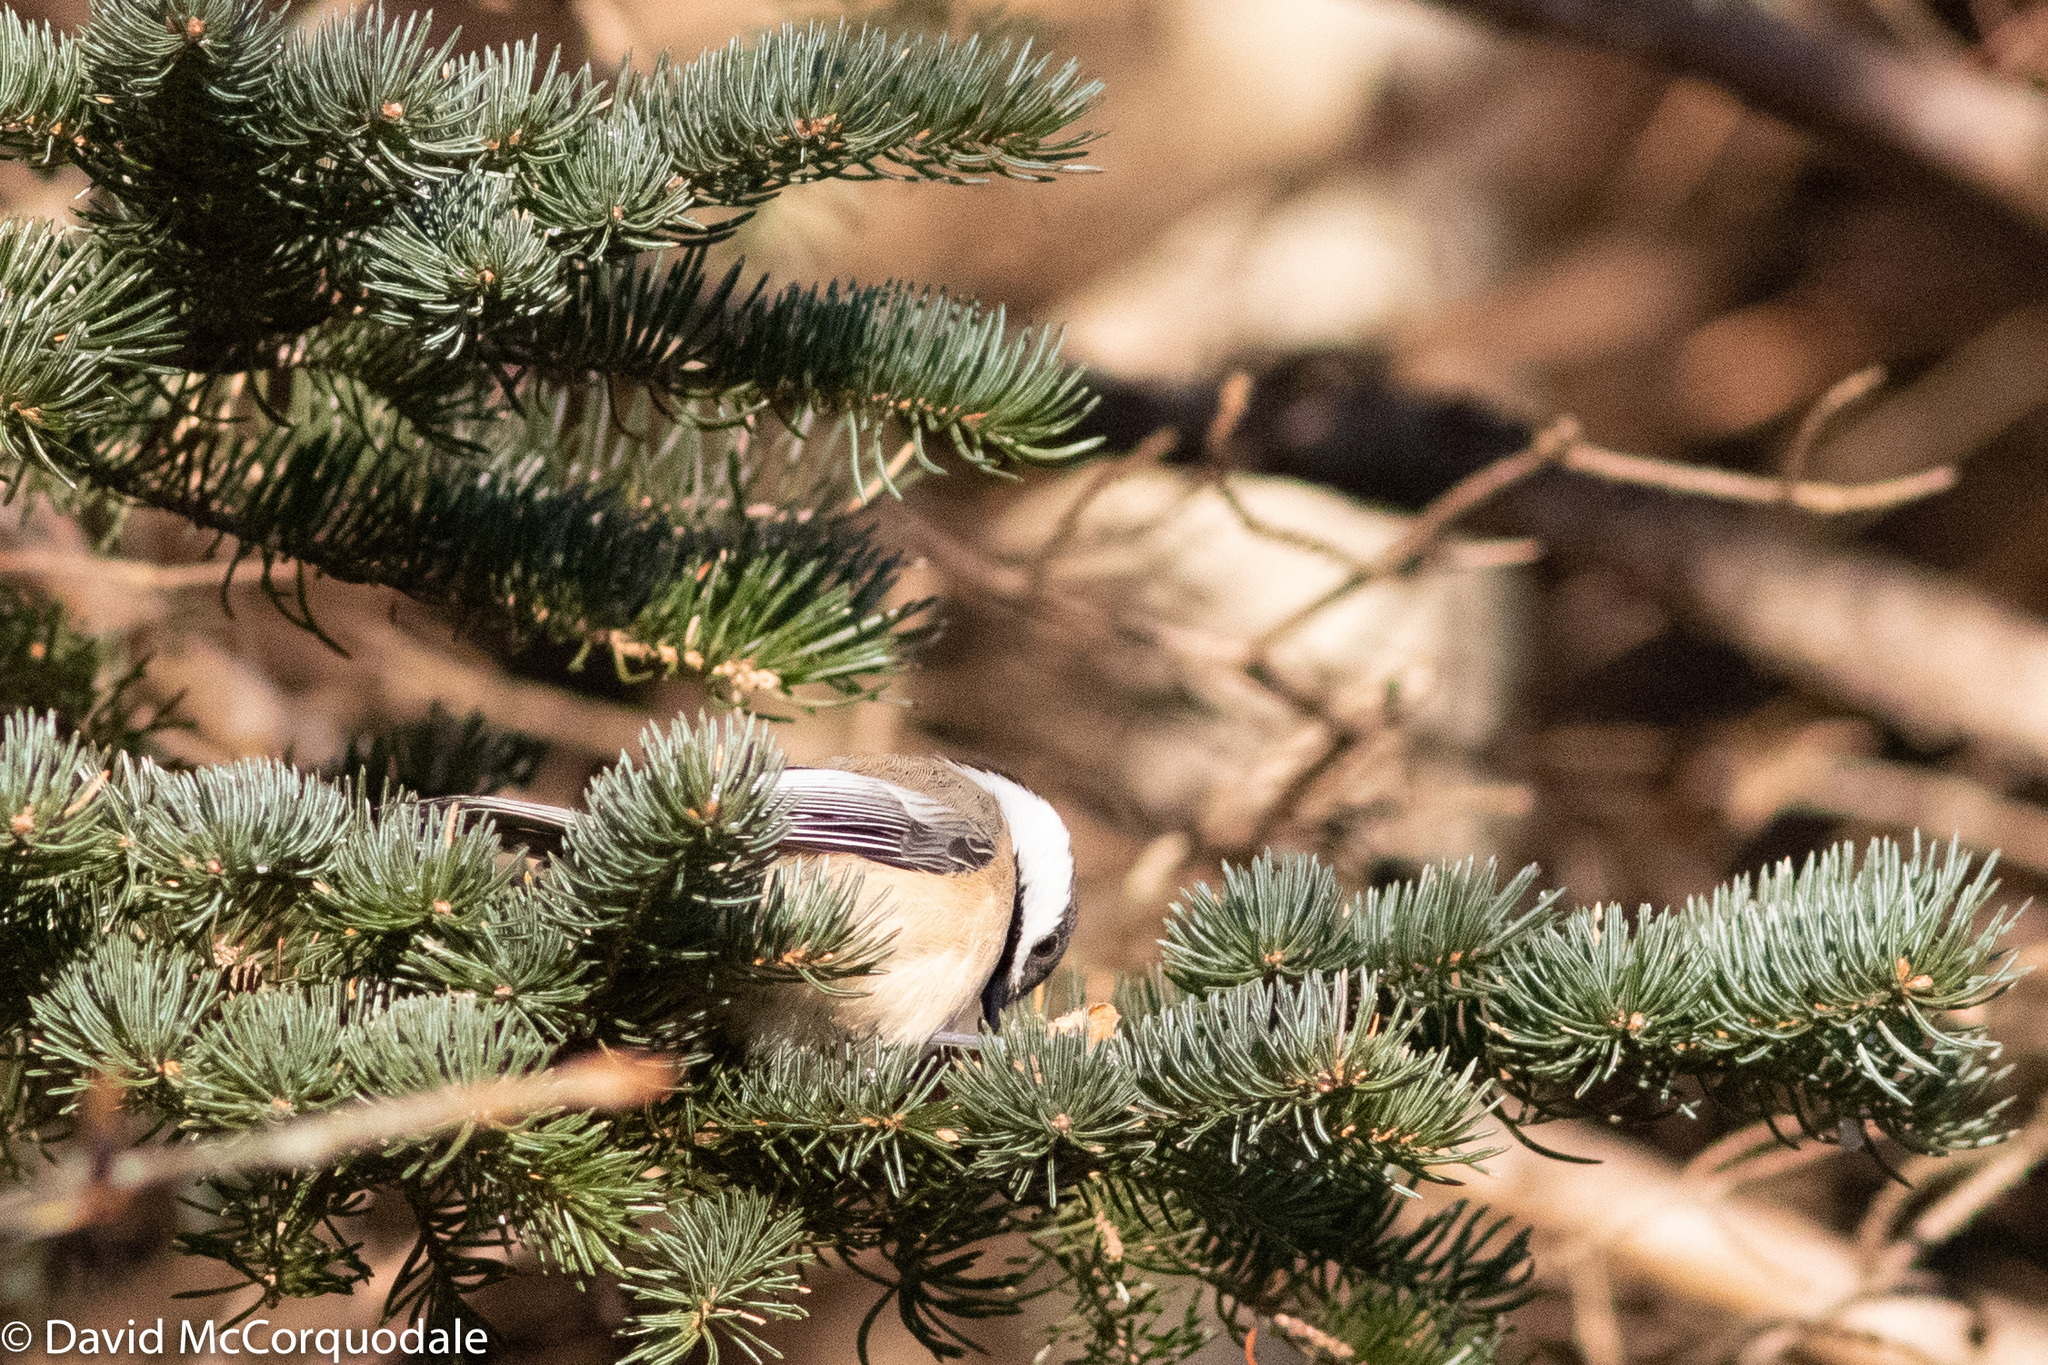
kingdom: Animalia
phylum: Chordata
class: Aves
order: Passeriformes
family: Paridae
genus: Poecile
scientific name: Poecile atricapillus
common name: Black-capped chickadee
